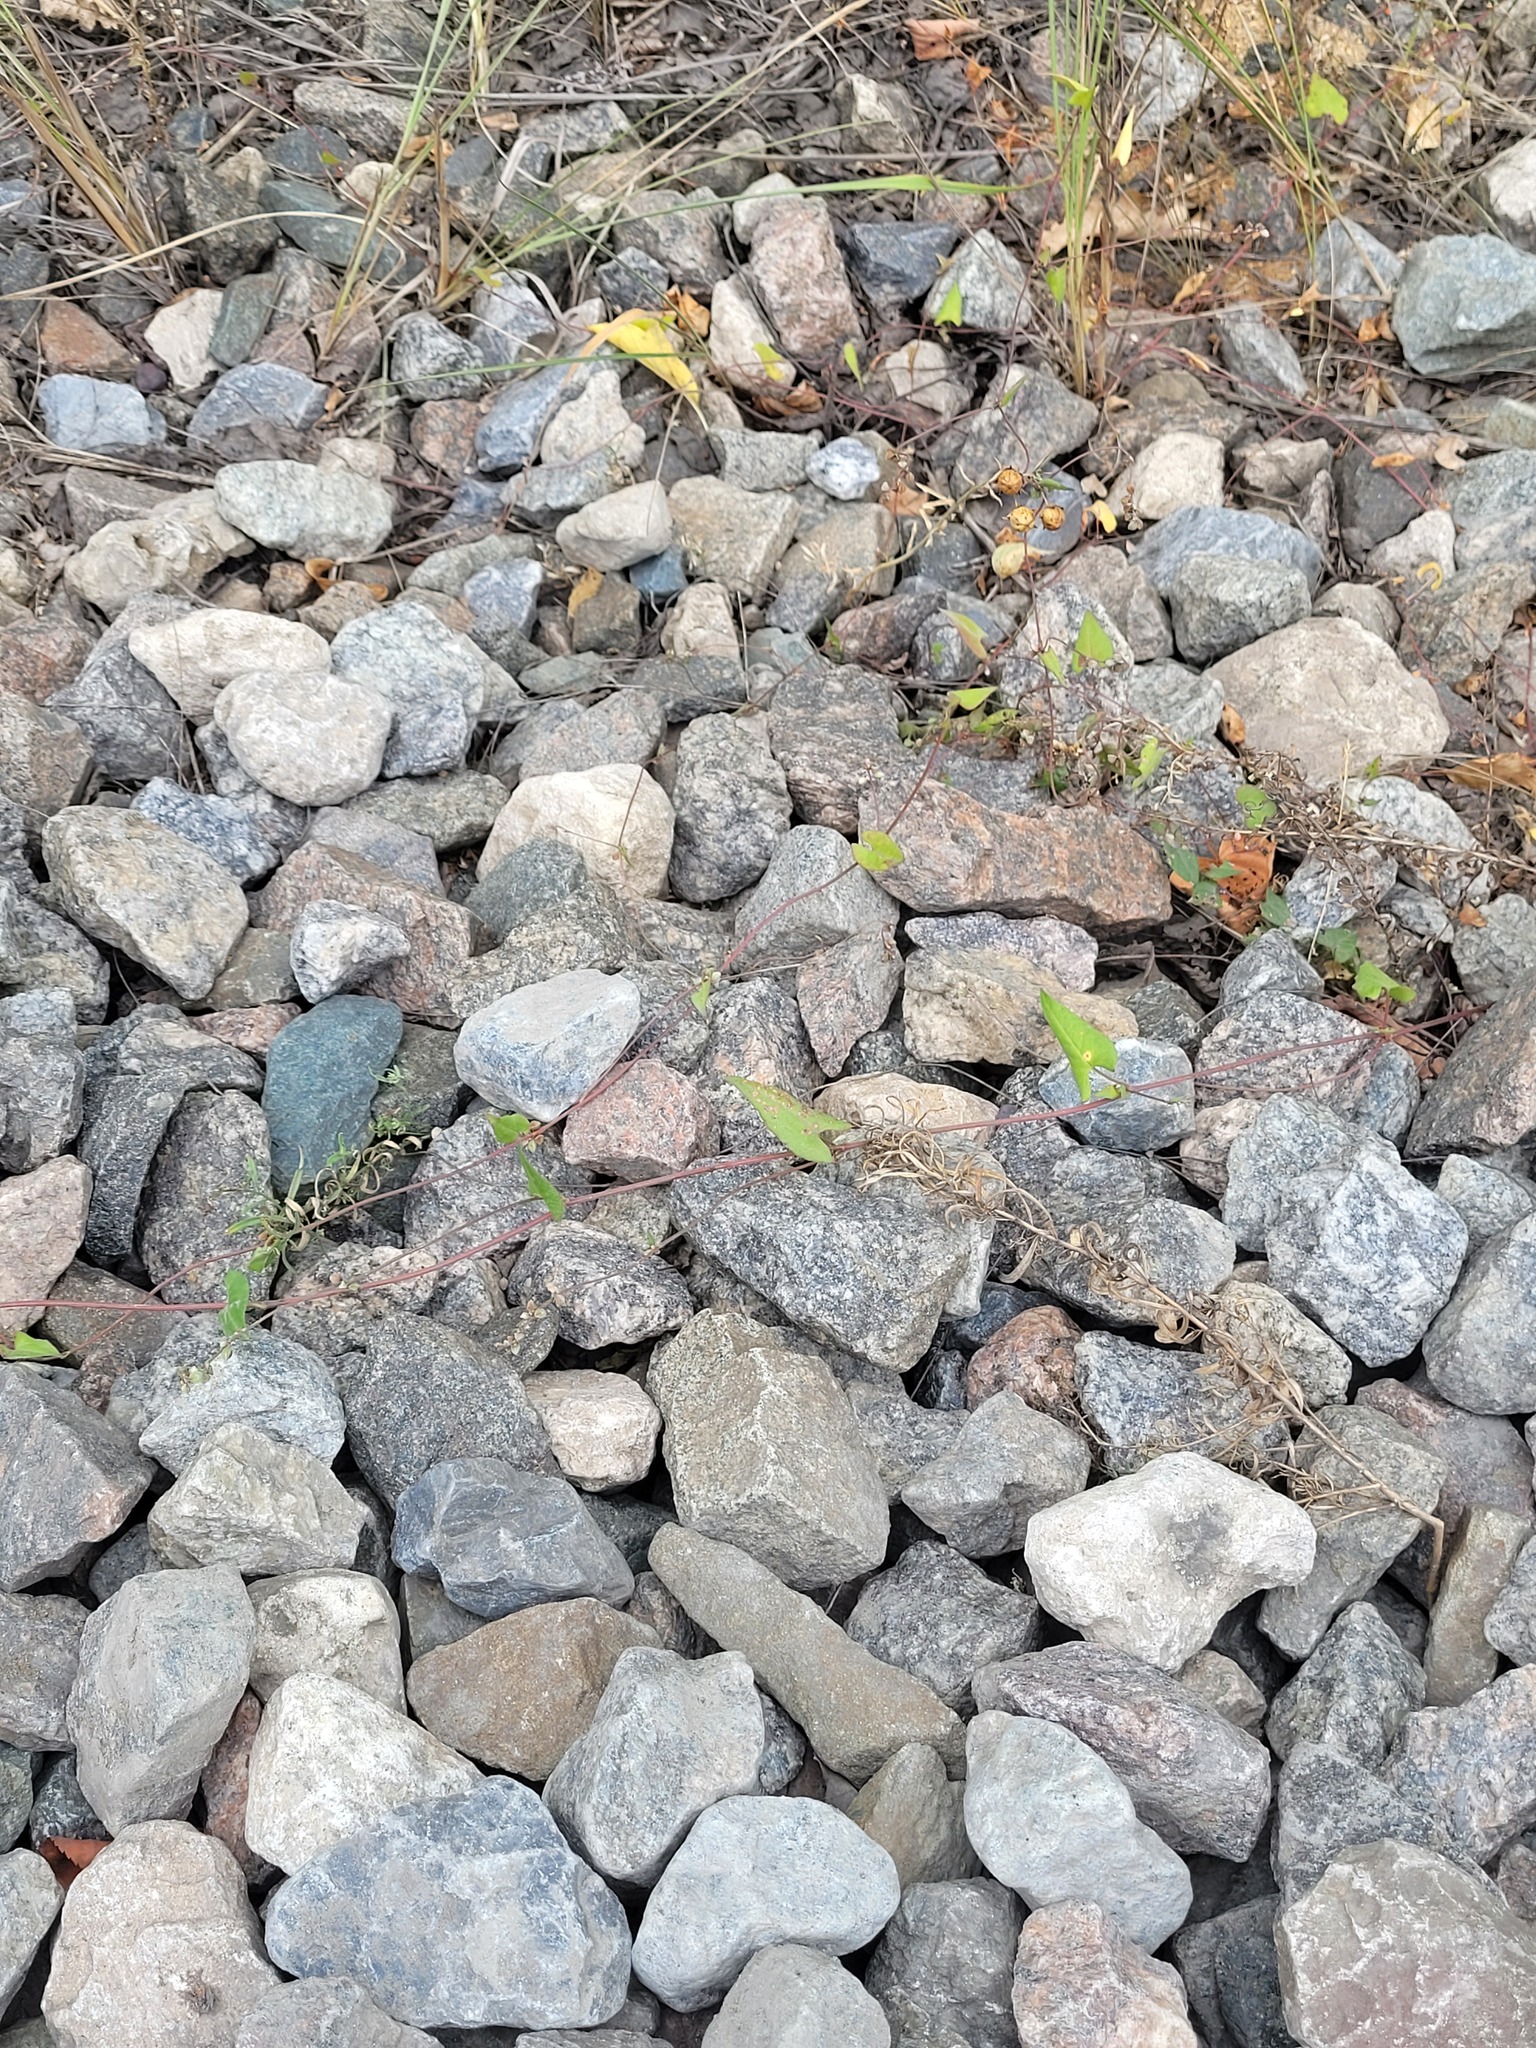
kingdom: Plantae
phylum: Tracheophyta
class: Magnoliopsida
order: Caryophyllales
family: Polygonaceae
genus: Fallopia
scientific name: Fallopia convolvulus
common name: Black bindweed
